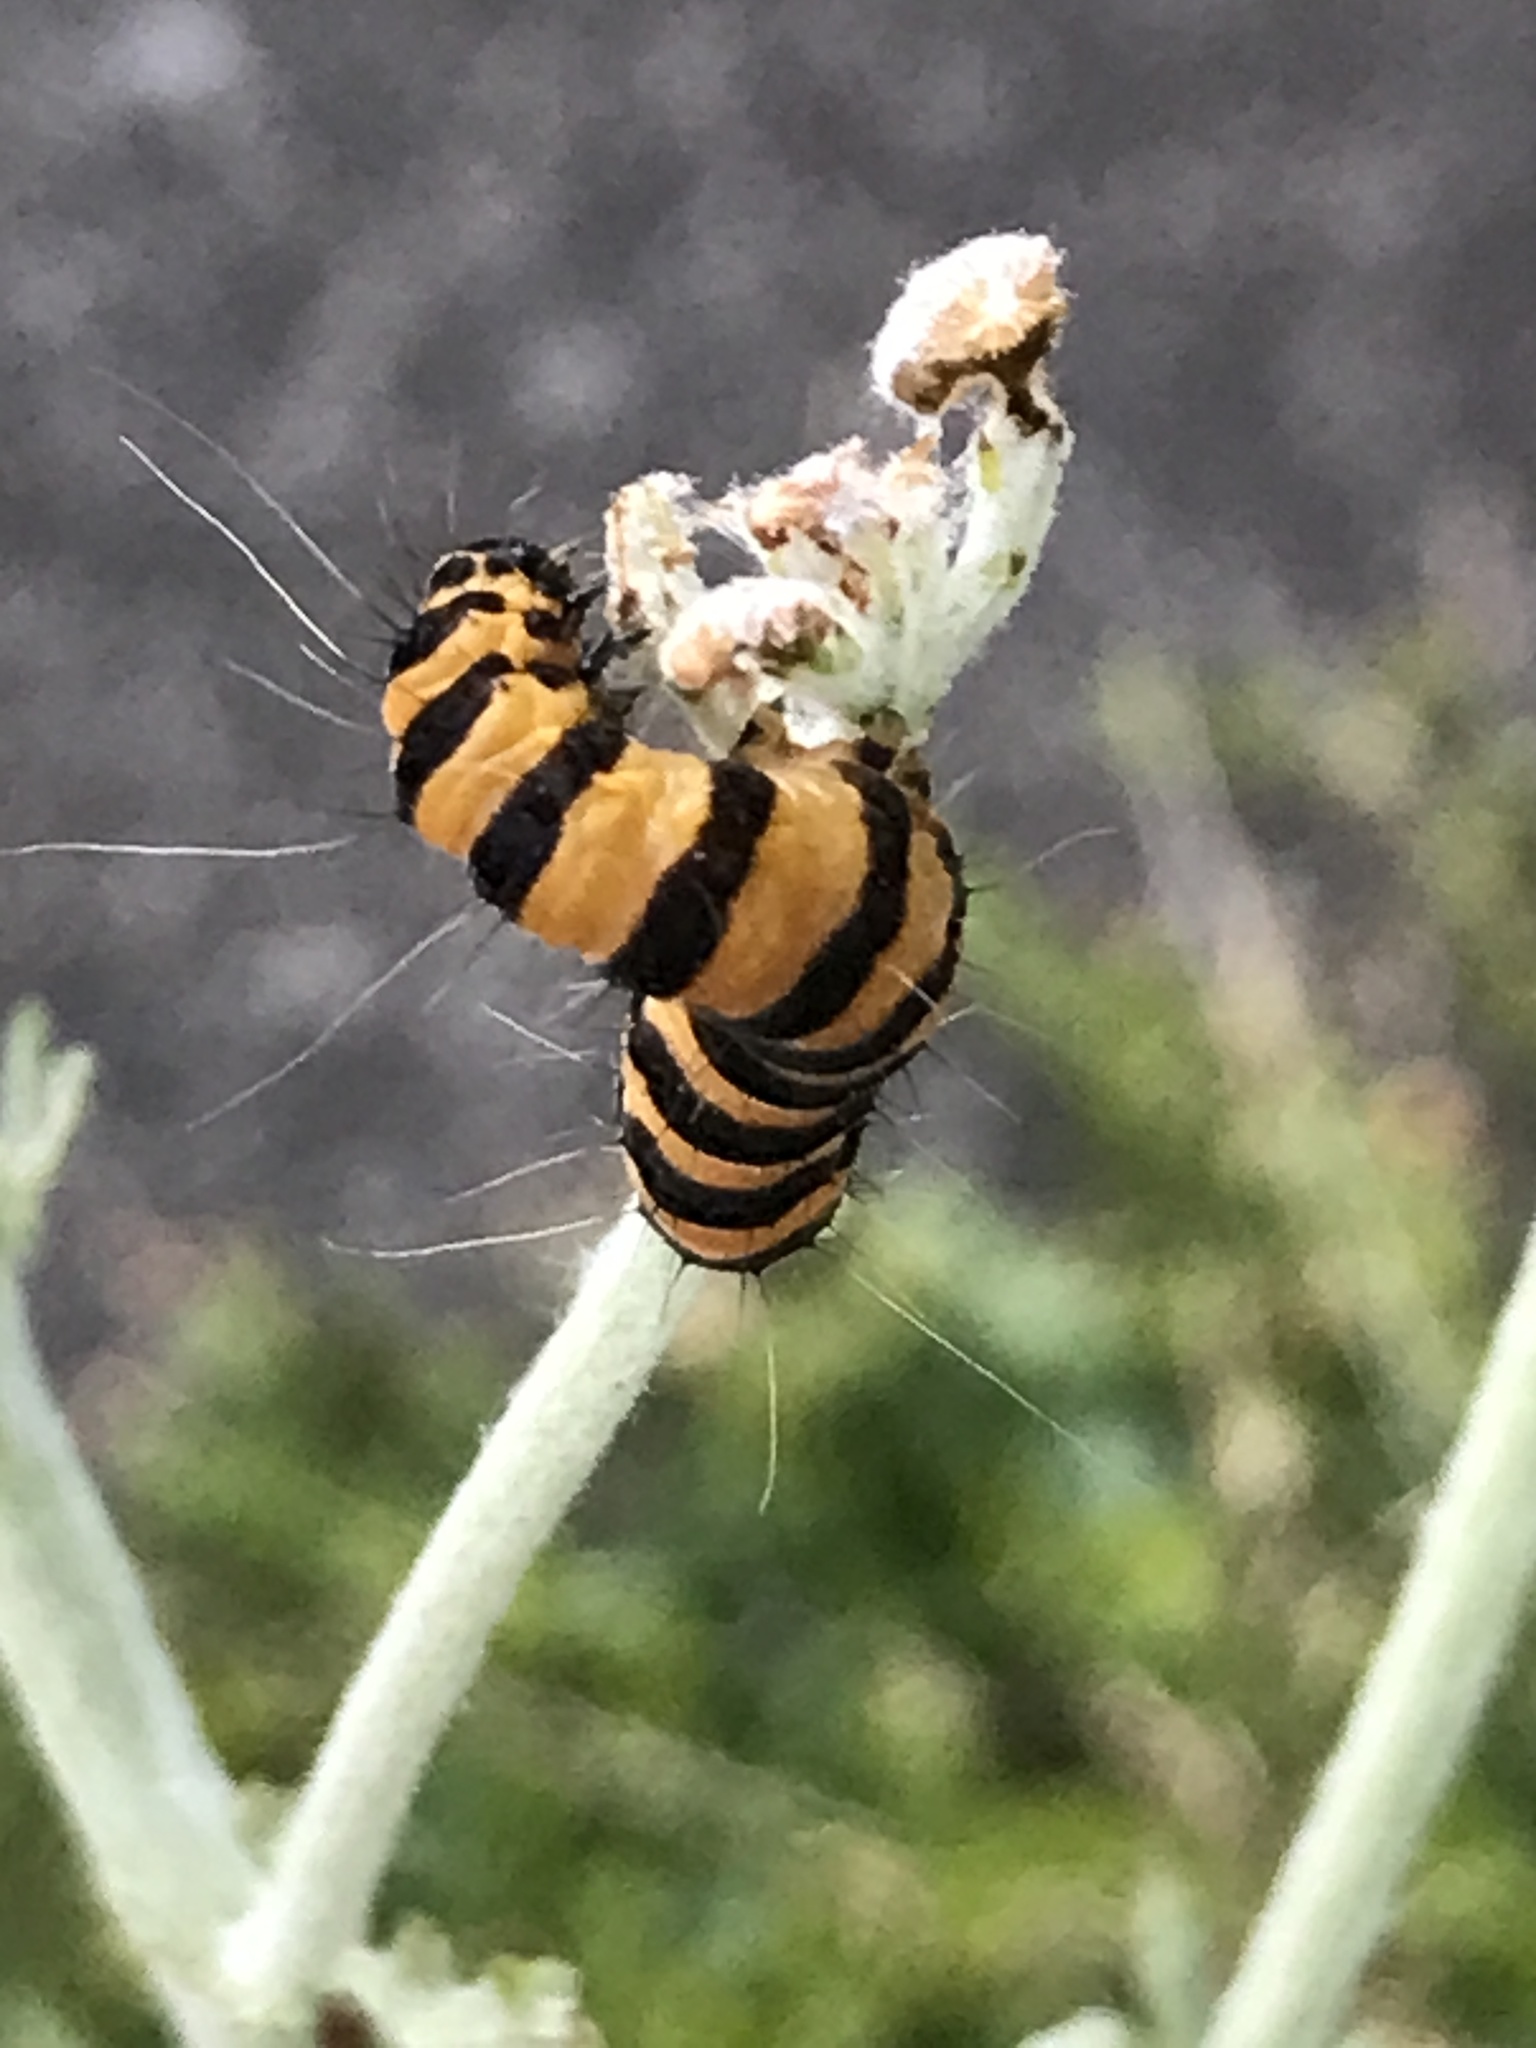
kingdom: Animalia
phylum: Arthropoda
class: Insecta
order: Lepidoptera
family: Erebidae
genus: Tyria
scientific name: Tyria jacobaeae
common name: Cinnabar
